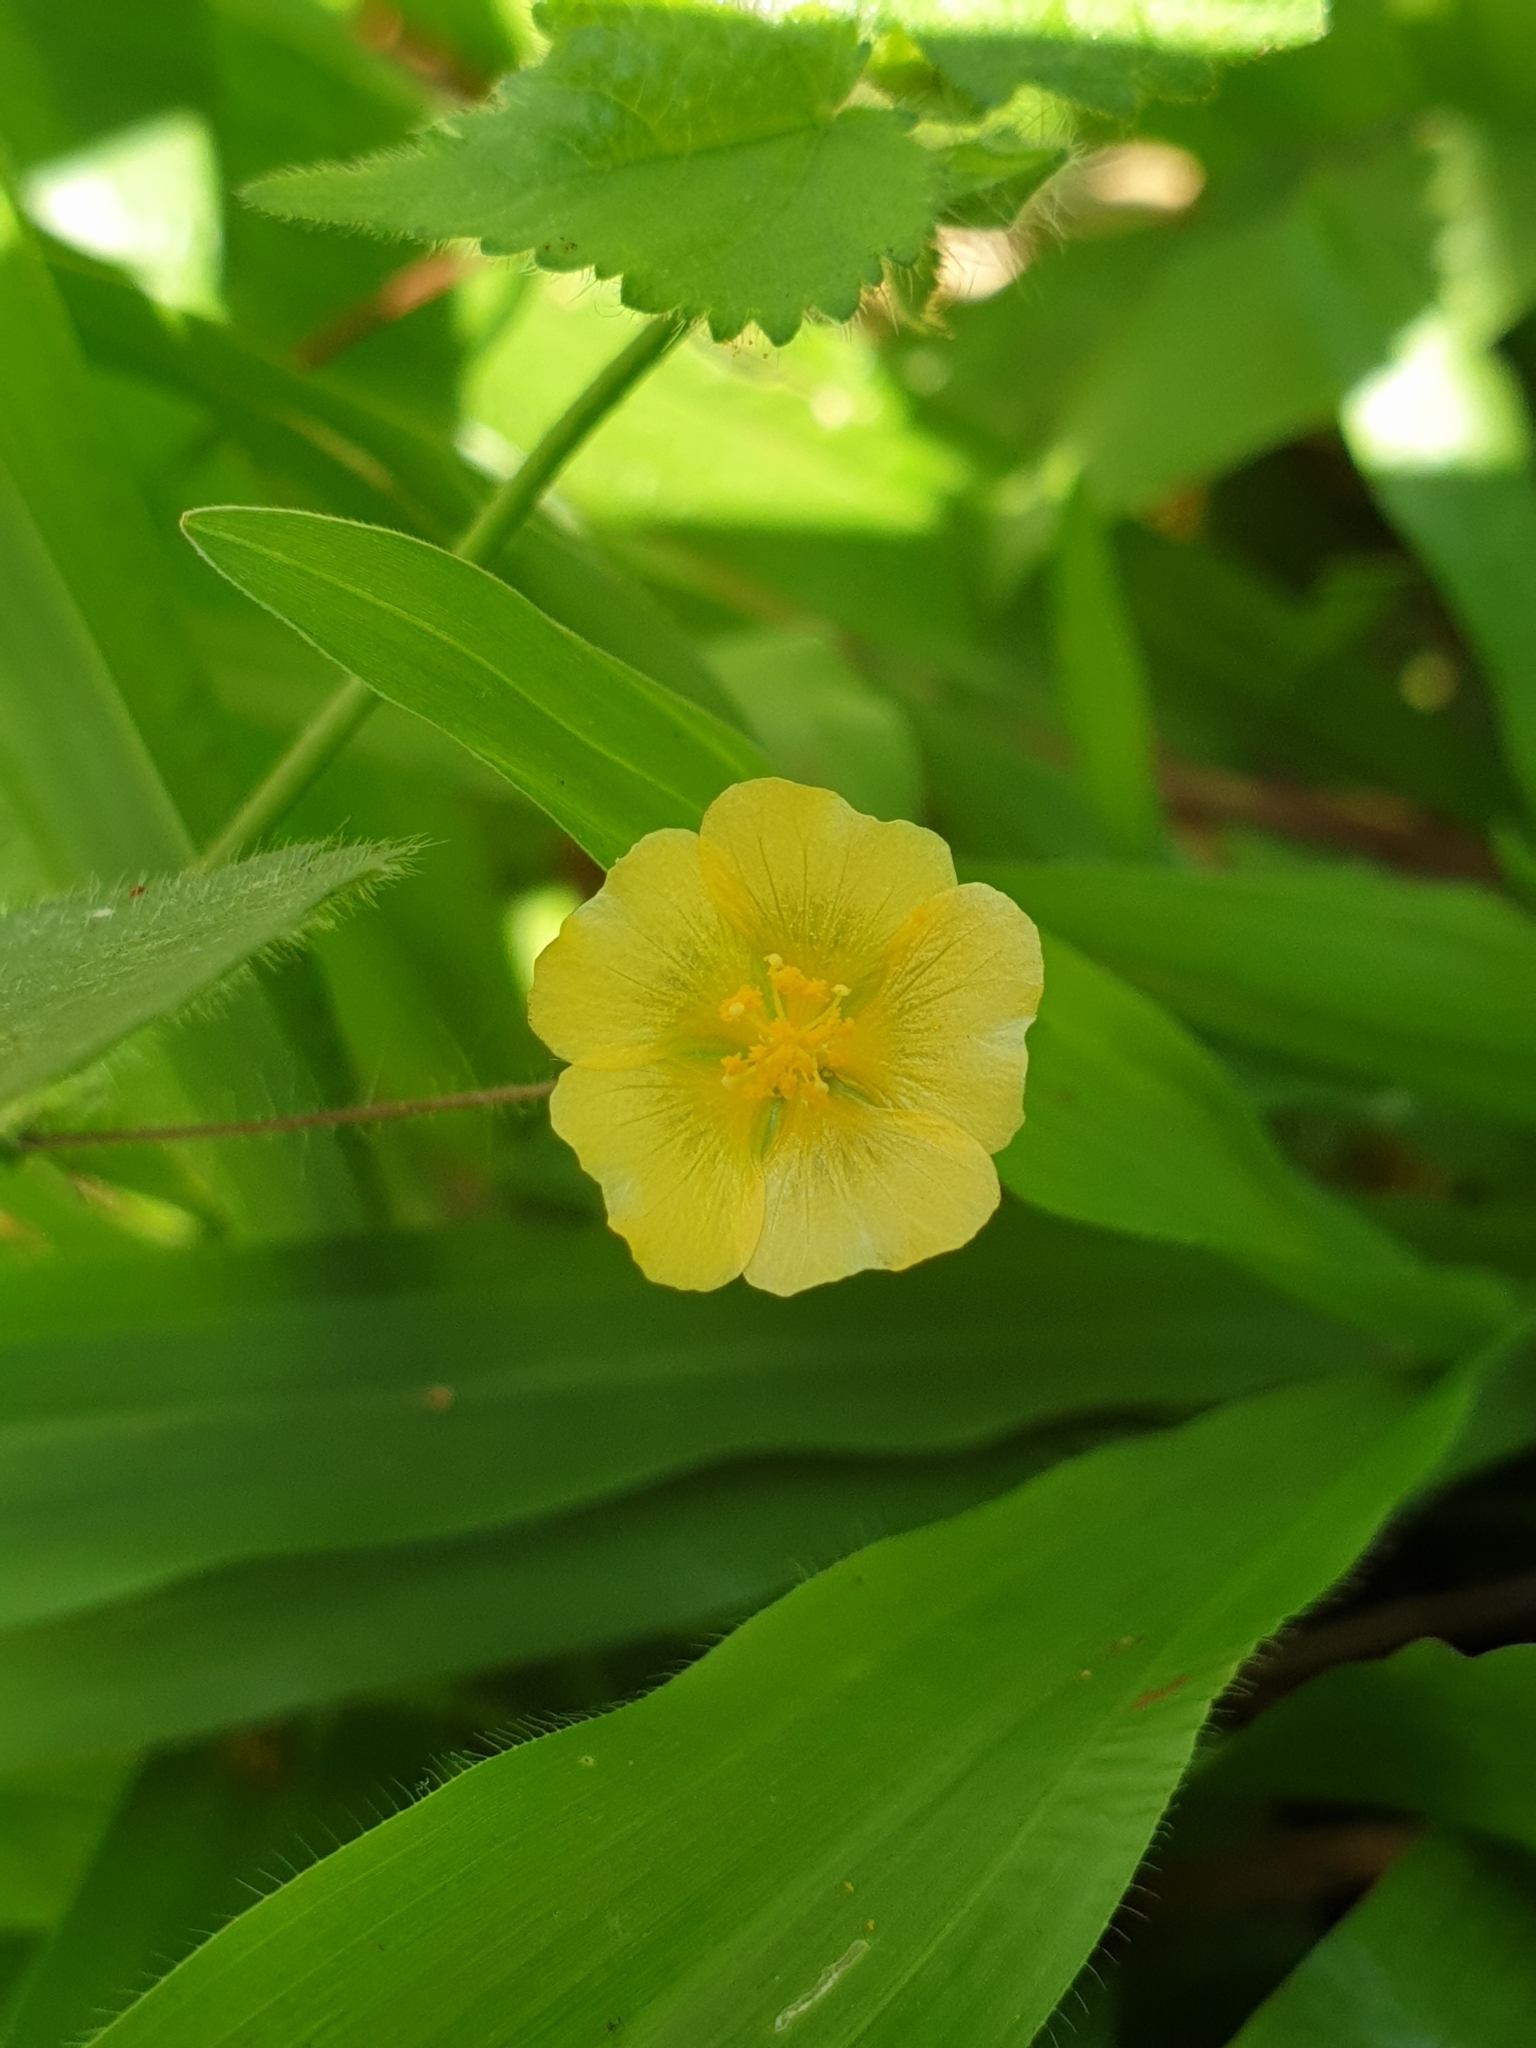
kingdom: Plantae
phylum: Tracheophyta
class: Magnoliopsida
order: Malvales
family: Malvaceae
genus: Sida
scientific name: Sida cordata
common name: Long-stalk sida
